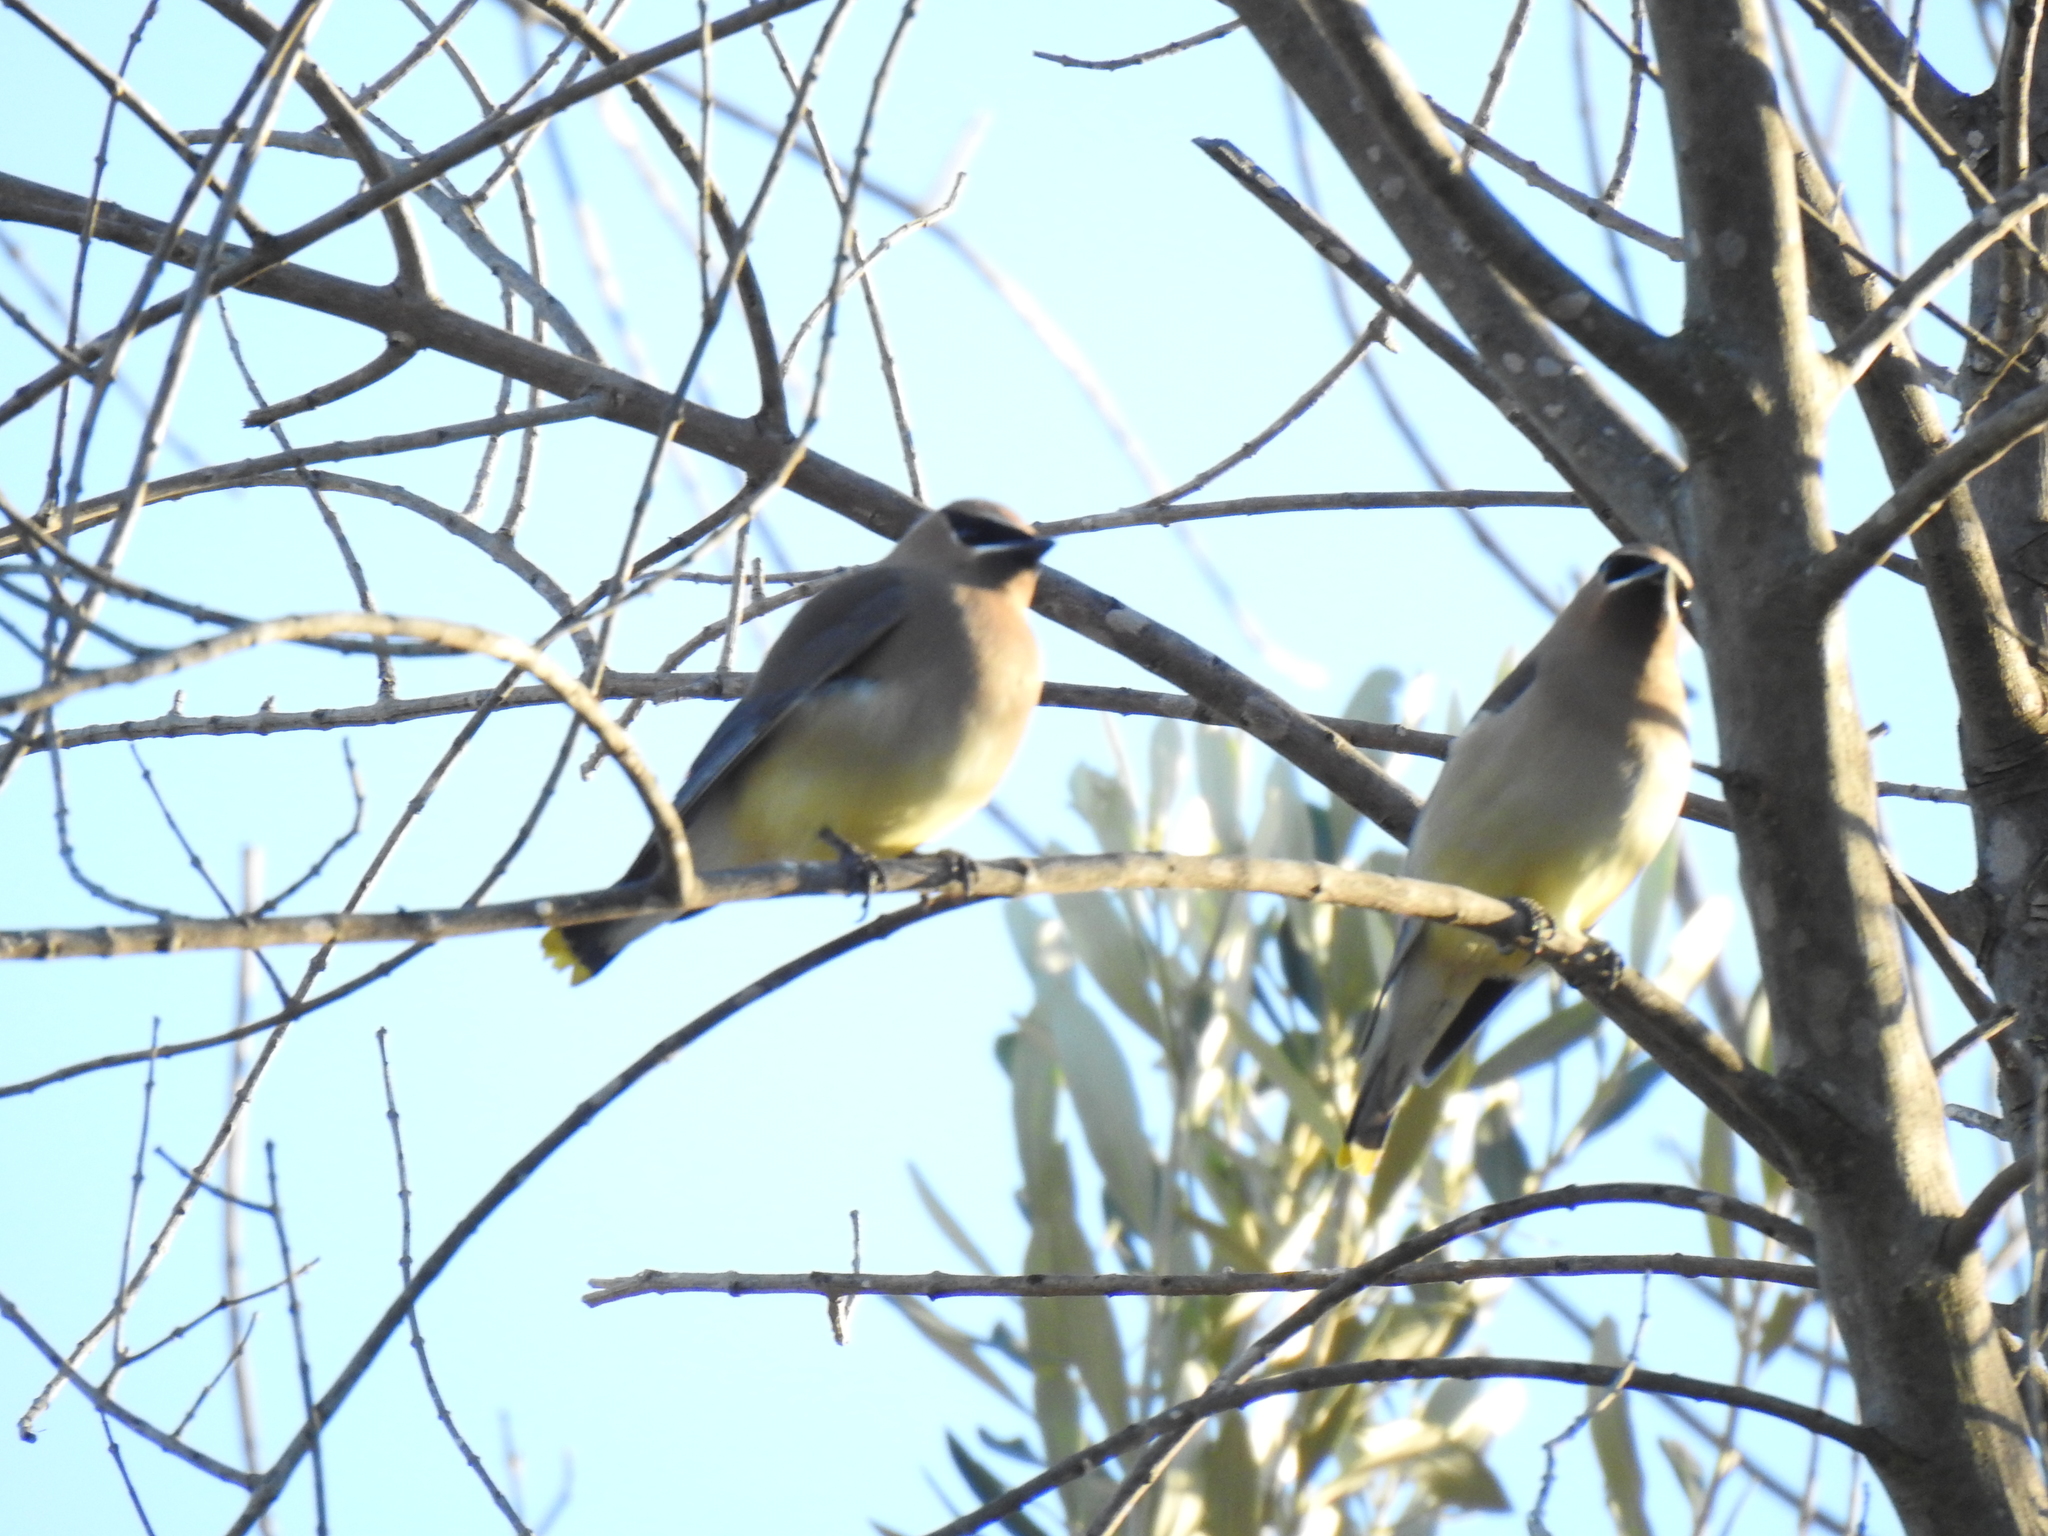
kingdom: Animalia
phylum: Chordata
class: Aves
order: Passeriformes
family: Bombycillidae
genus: Bombycilla
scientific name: Bombycilla cedrorum
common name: Cedar waxwing
